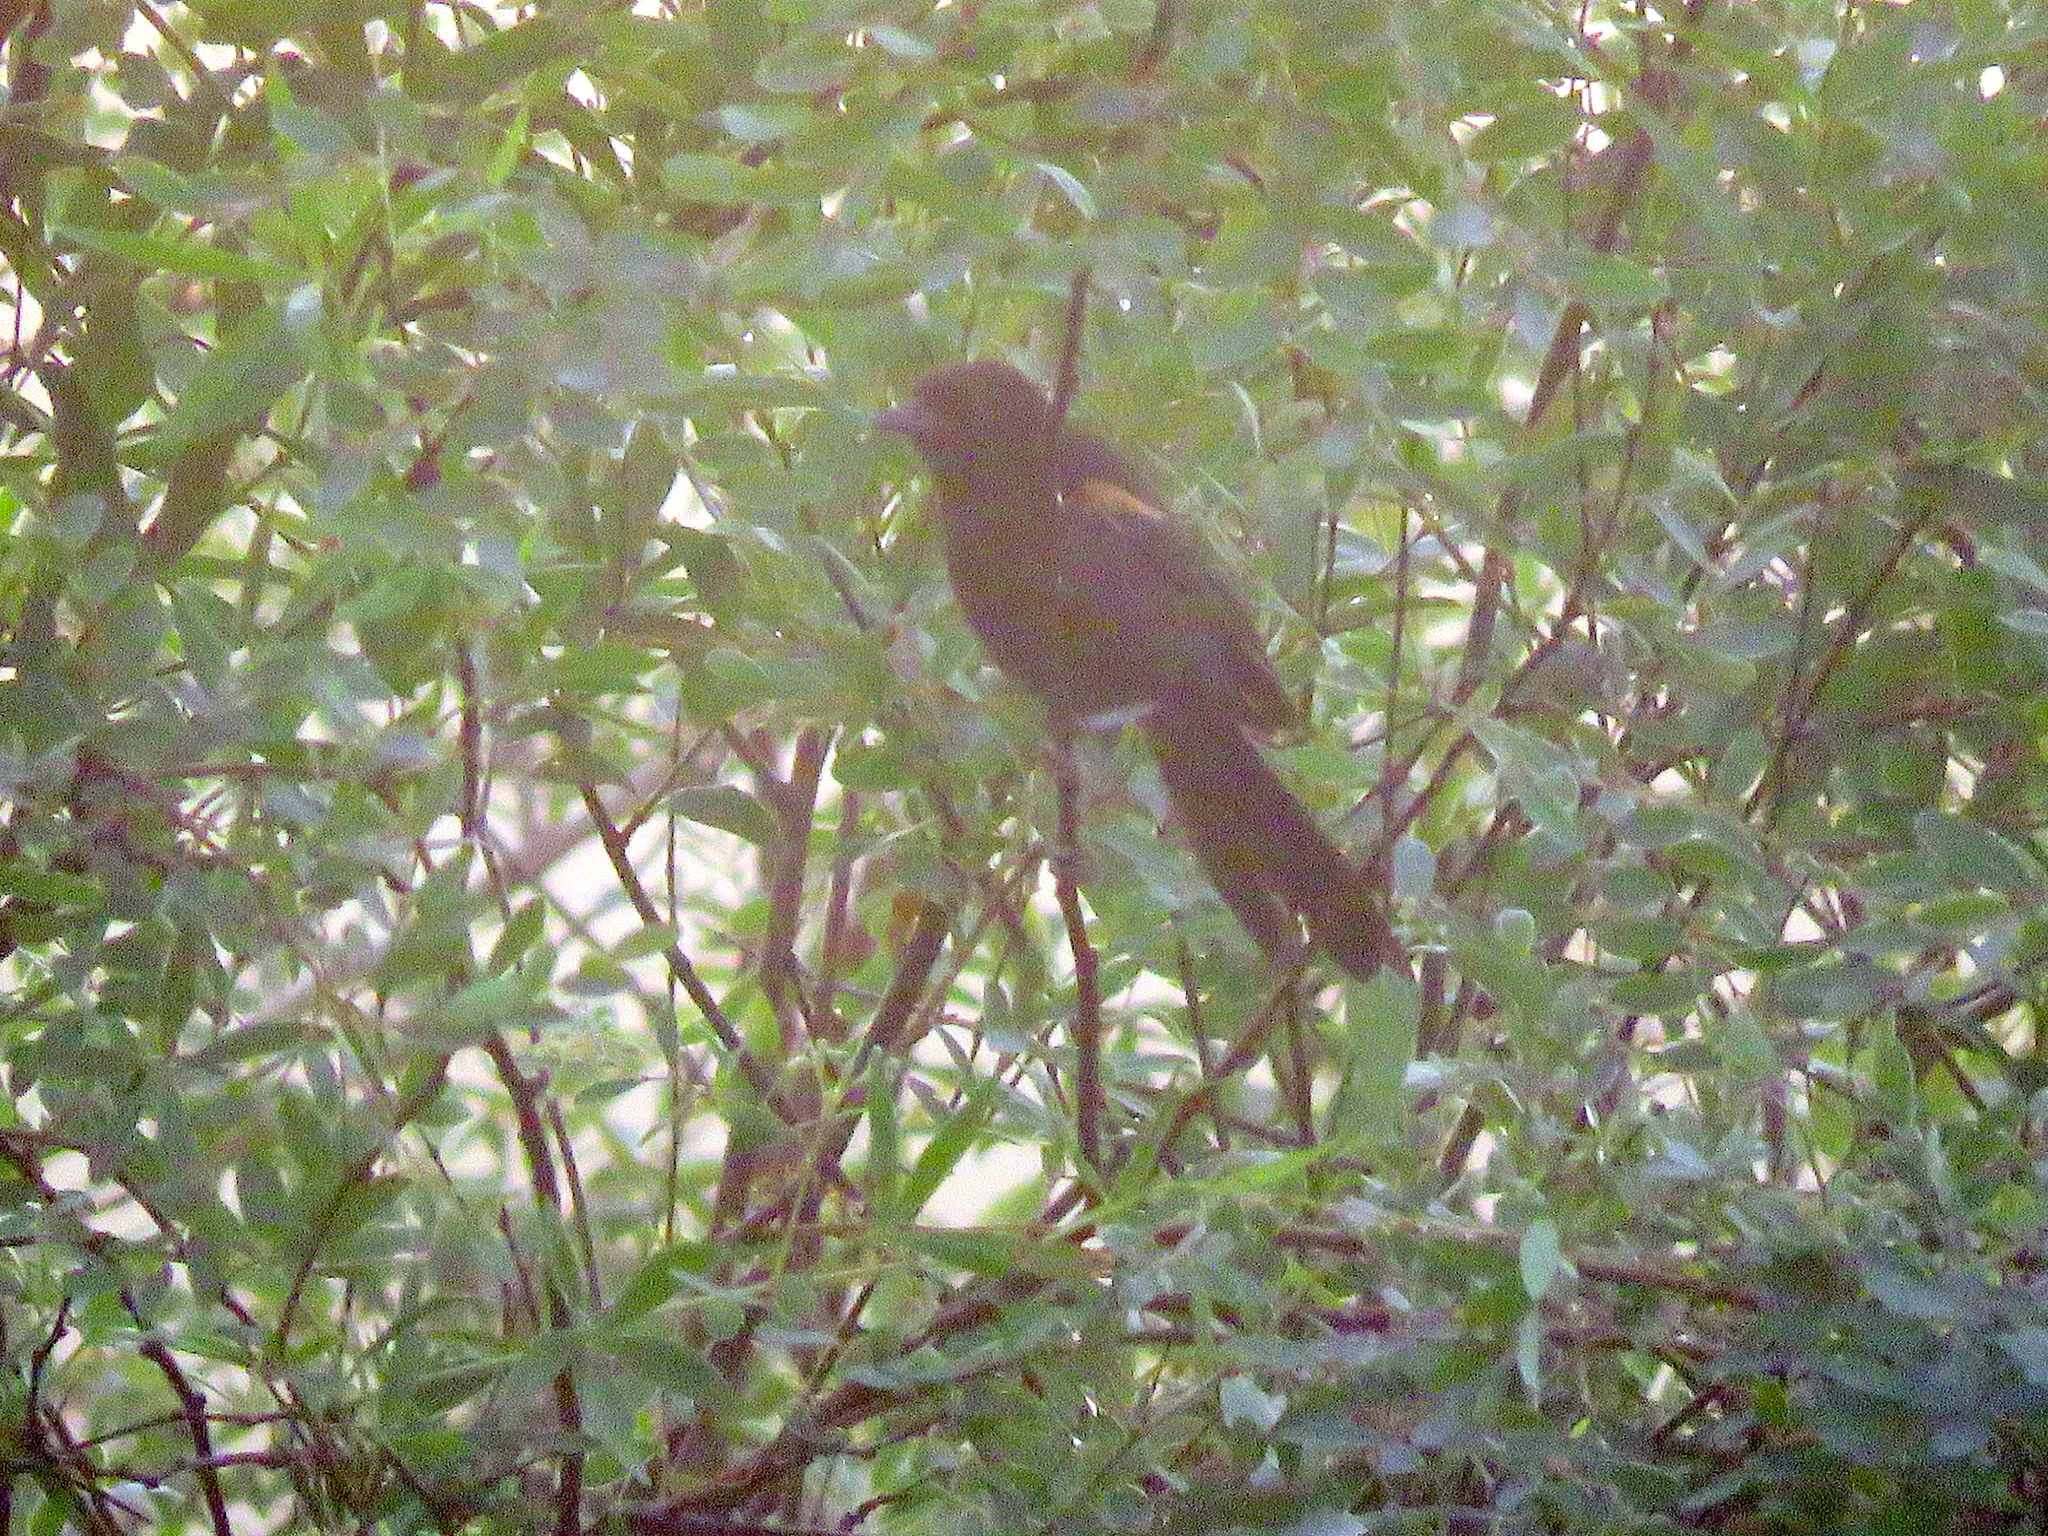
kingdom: Animalia
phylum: Chordata
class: Aves
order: Passeriformes
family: Icteridae
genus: Agelasticus
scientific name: Agelasticus thilius
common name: Yellow-winged blackbird
